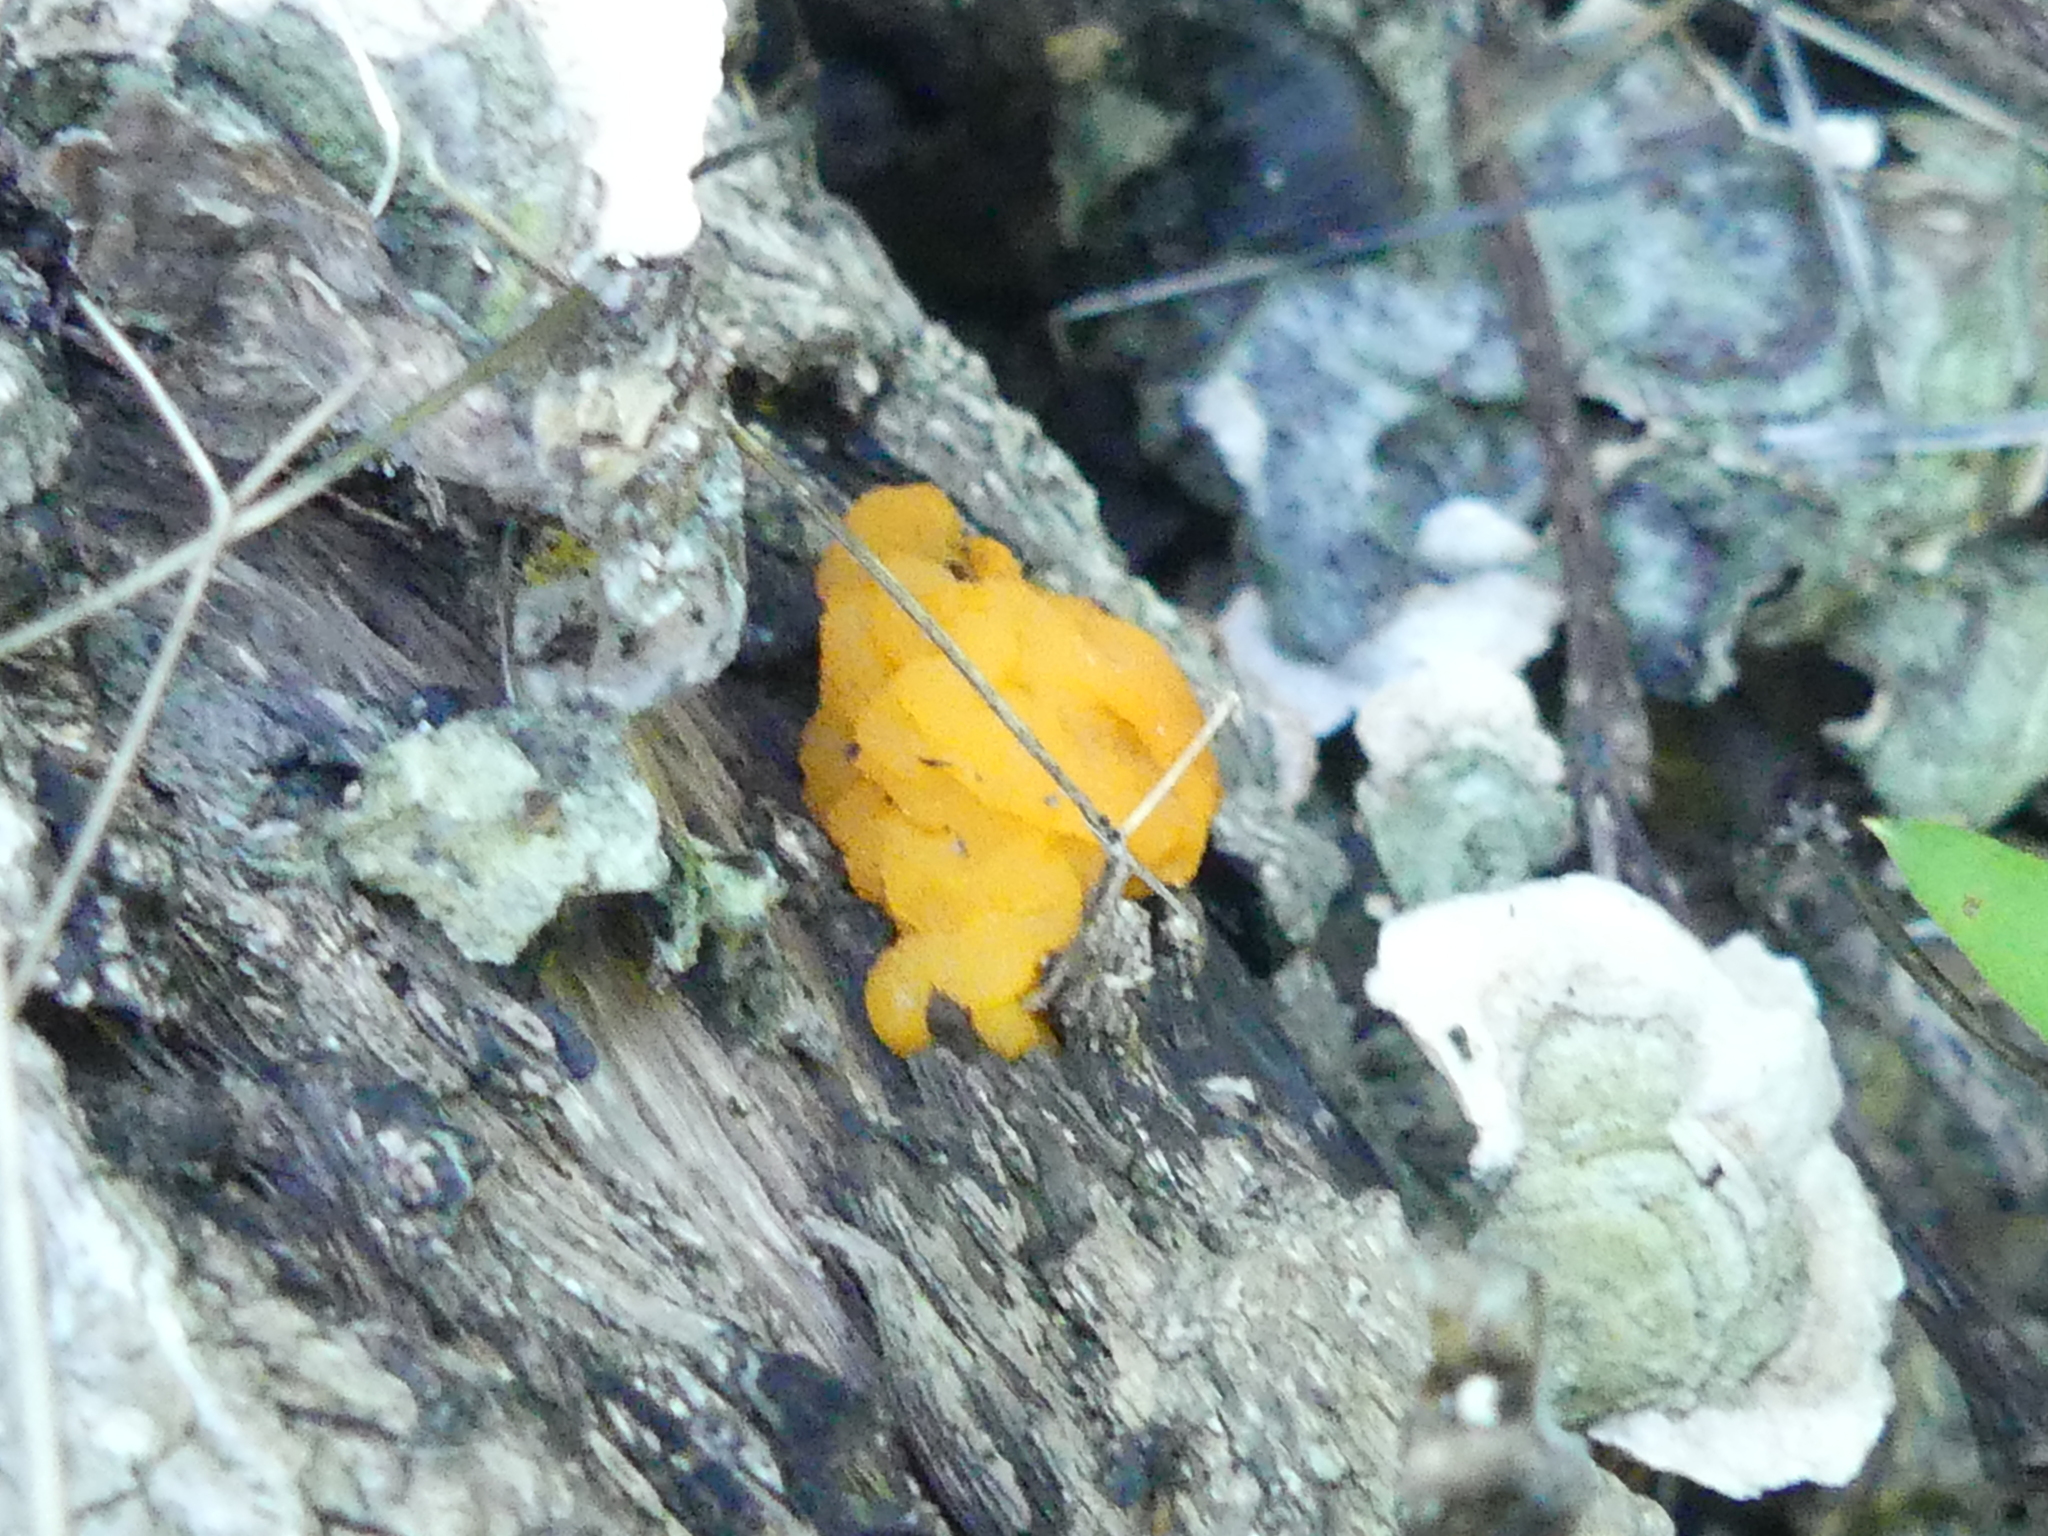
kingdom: Fungi
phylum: Basidiomycota
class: Tremellomycetes
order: Tremellales
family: Naemateliaceae
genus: Naematelia
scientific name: Naematelia aurantia
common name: Golden ear
